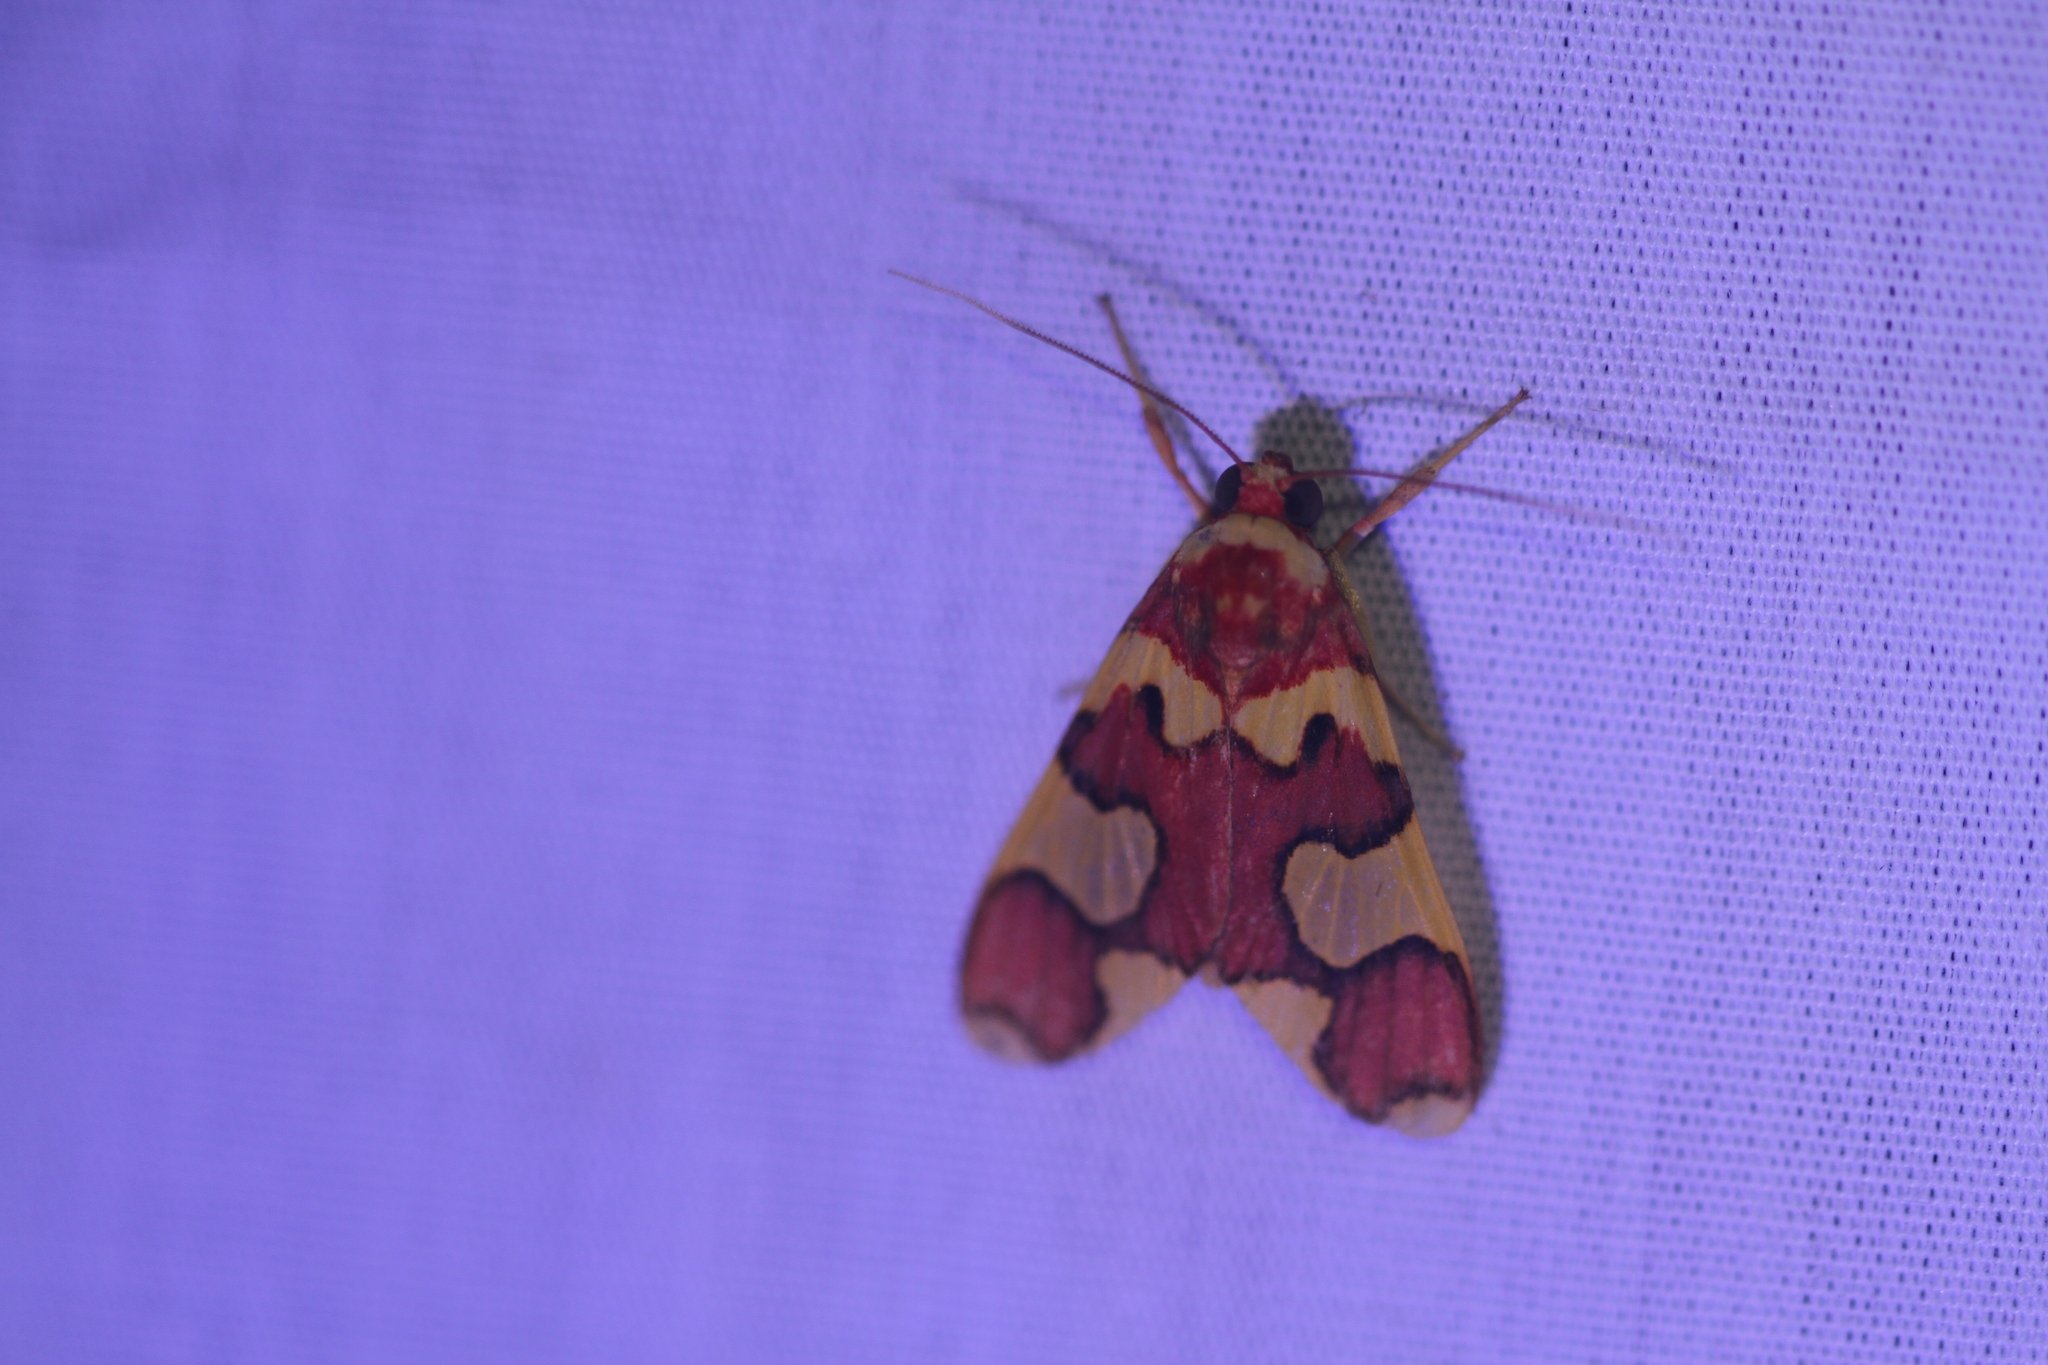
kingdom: Animalia
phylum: Arthropoda
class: Insecta
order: Lepidoptera
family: Erebidae
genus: Trichromia
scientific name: Trichromia supracoccinea
